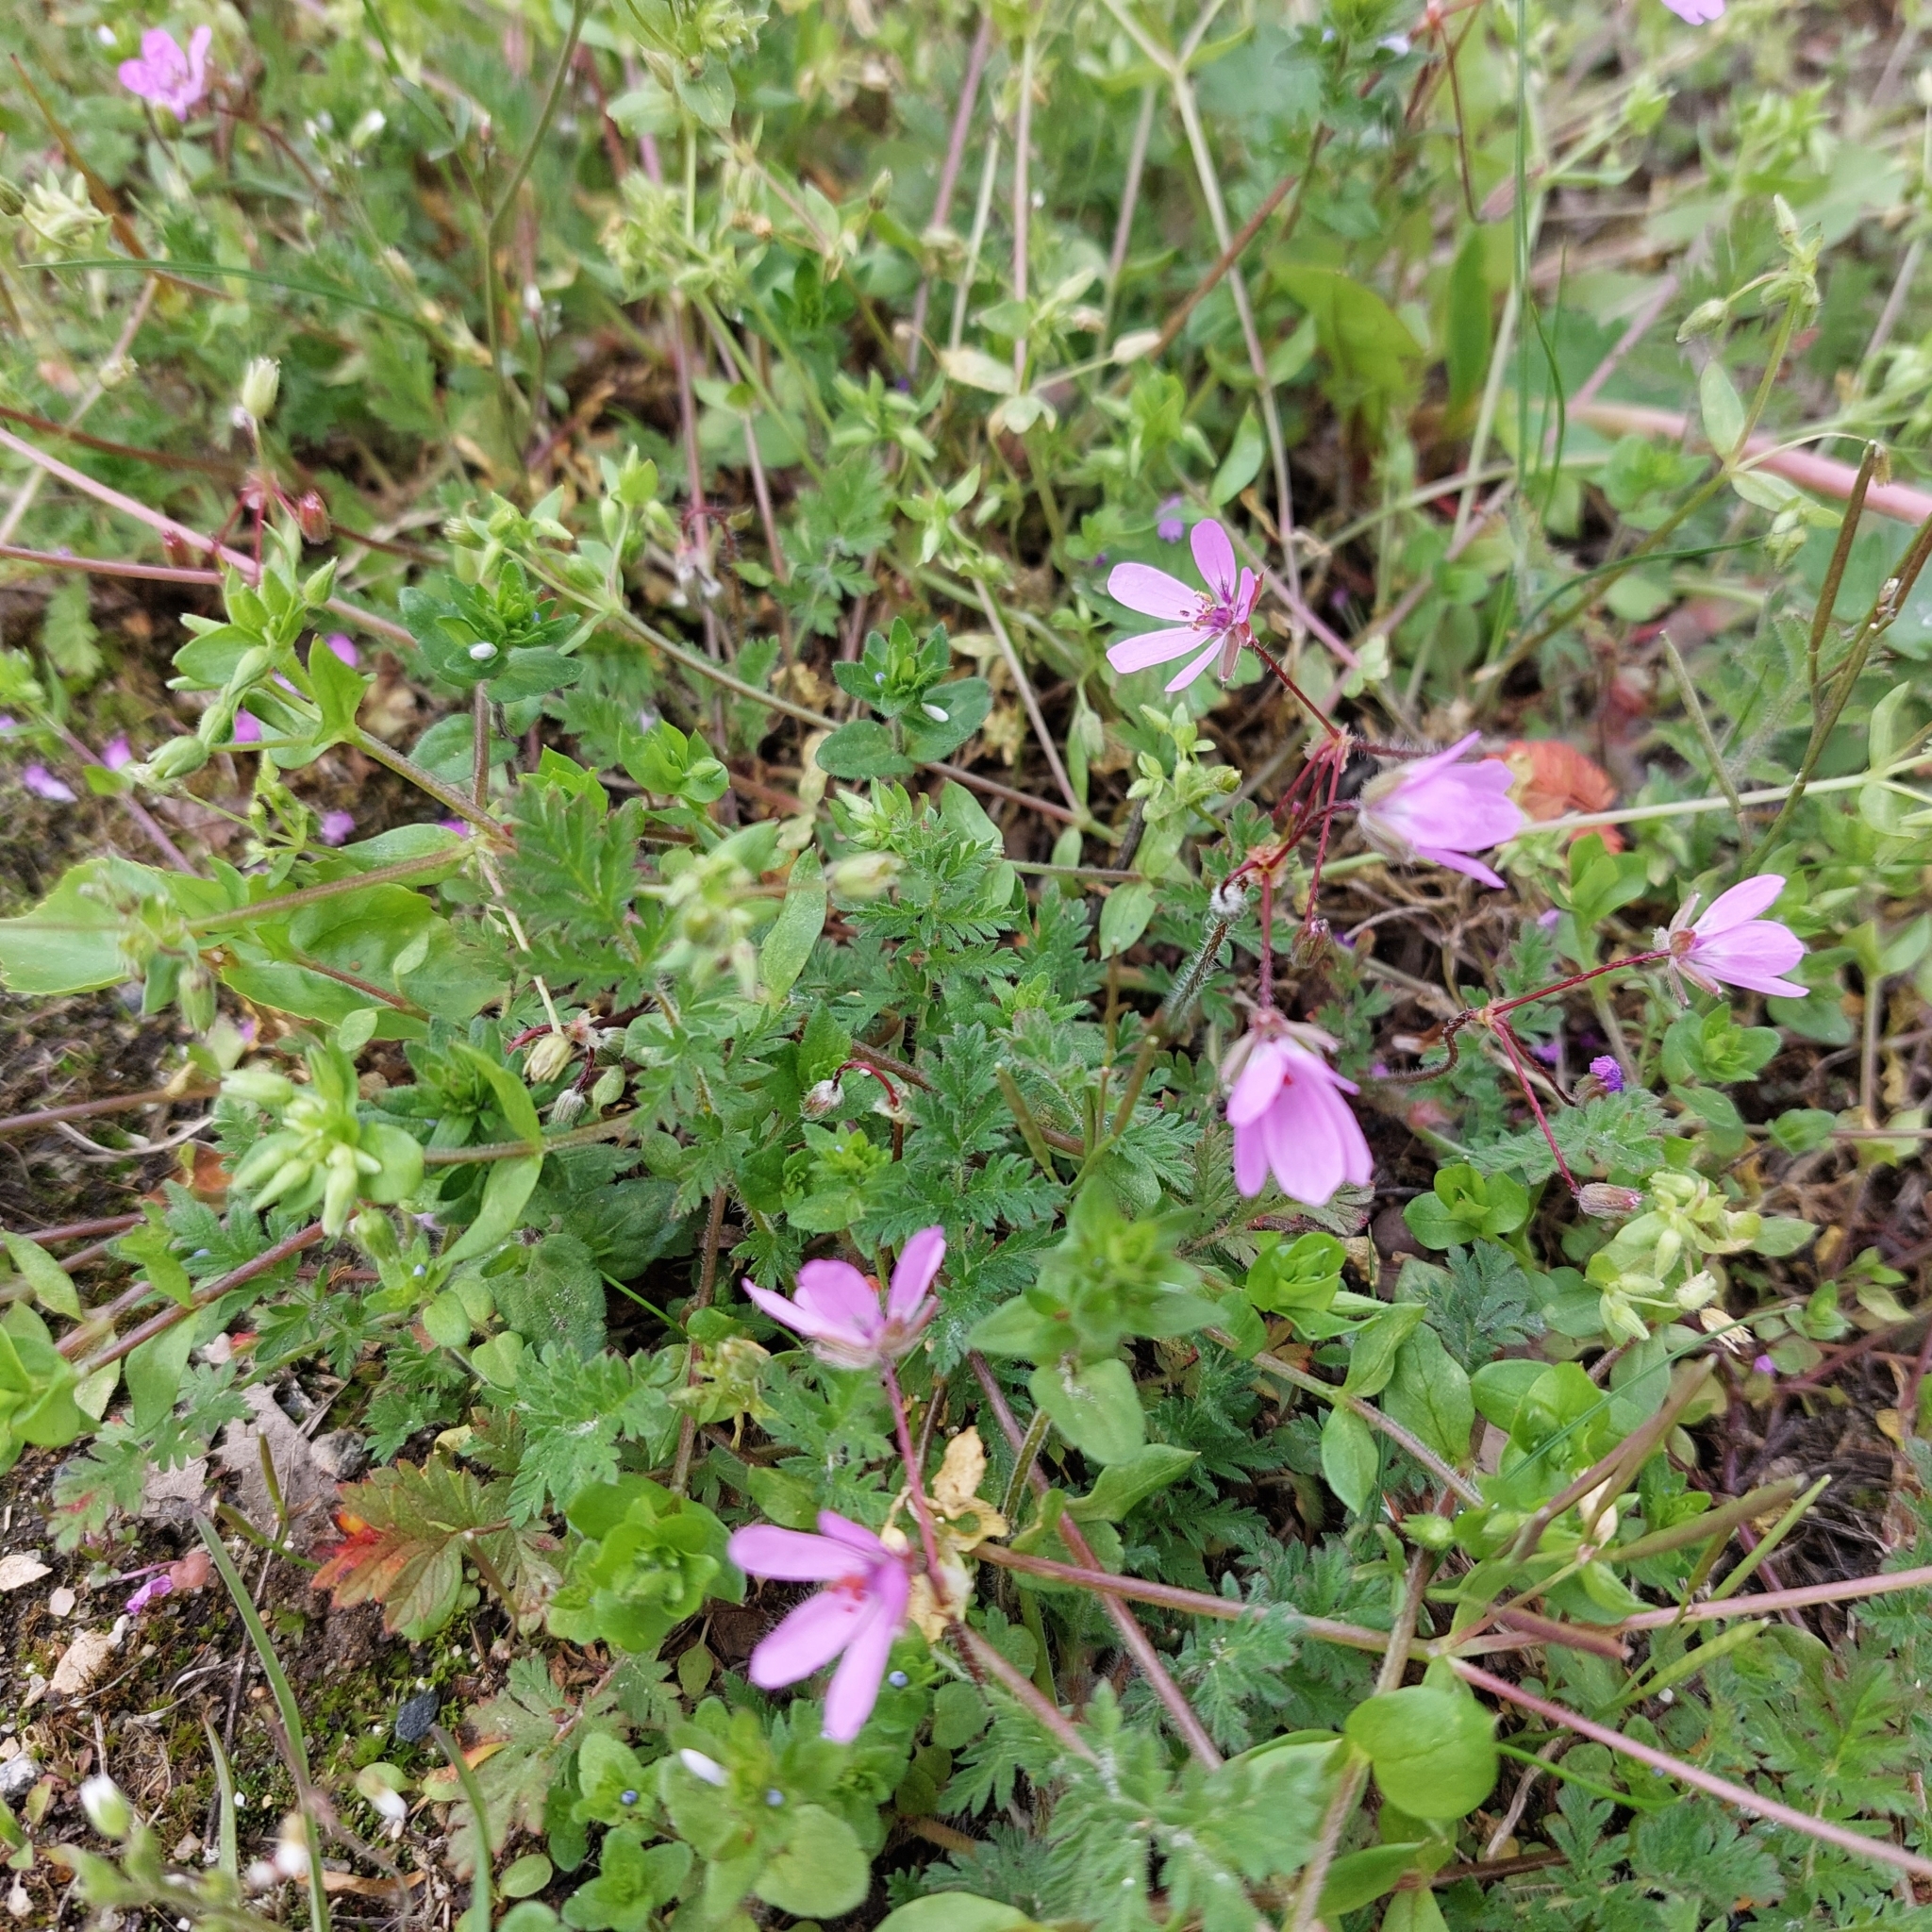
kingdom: Plantae
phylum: Tracheophyta
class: Magnoliopsida
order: Geraniales
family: Geraniaceae
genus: Erodium
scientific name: Erodium cicutarium
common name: Common stork's-bill
